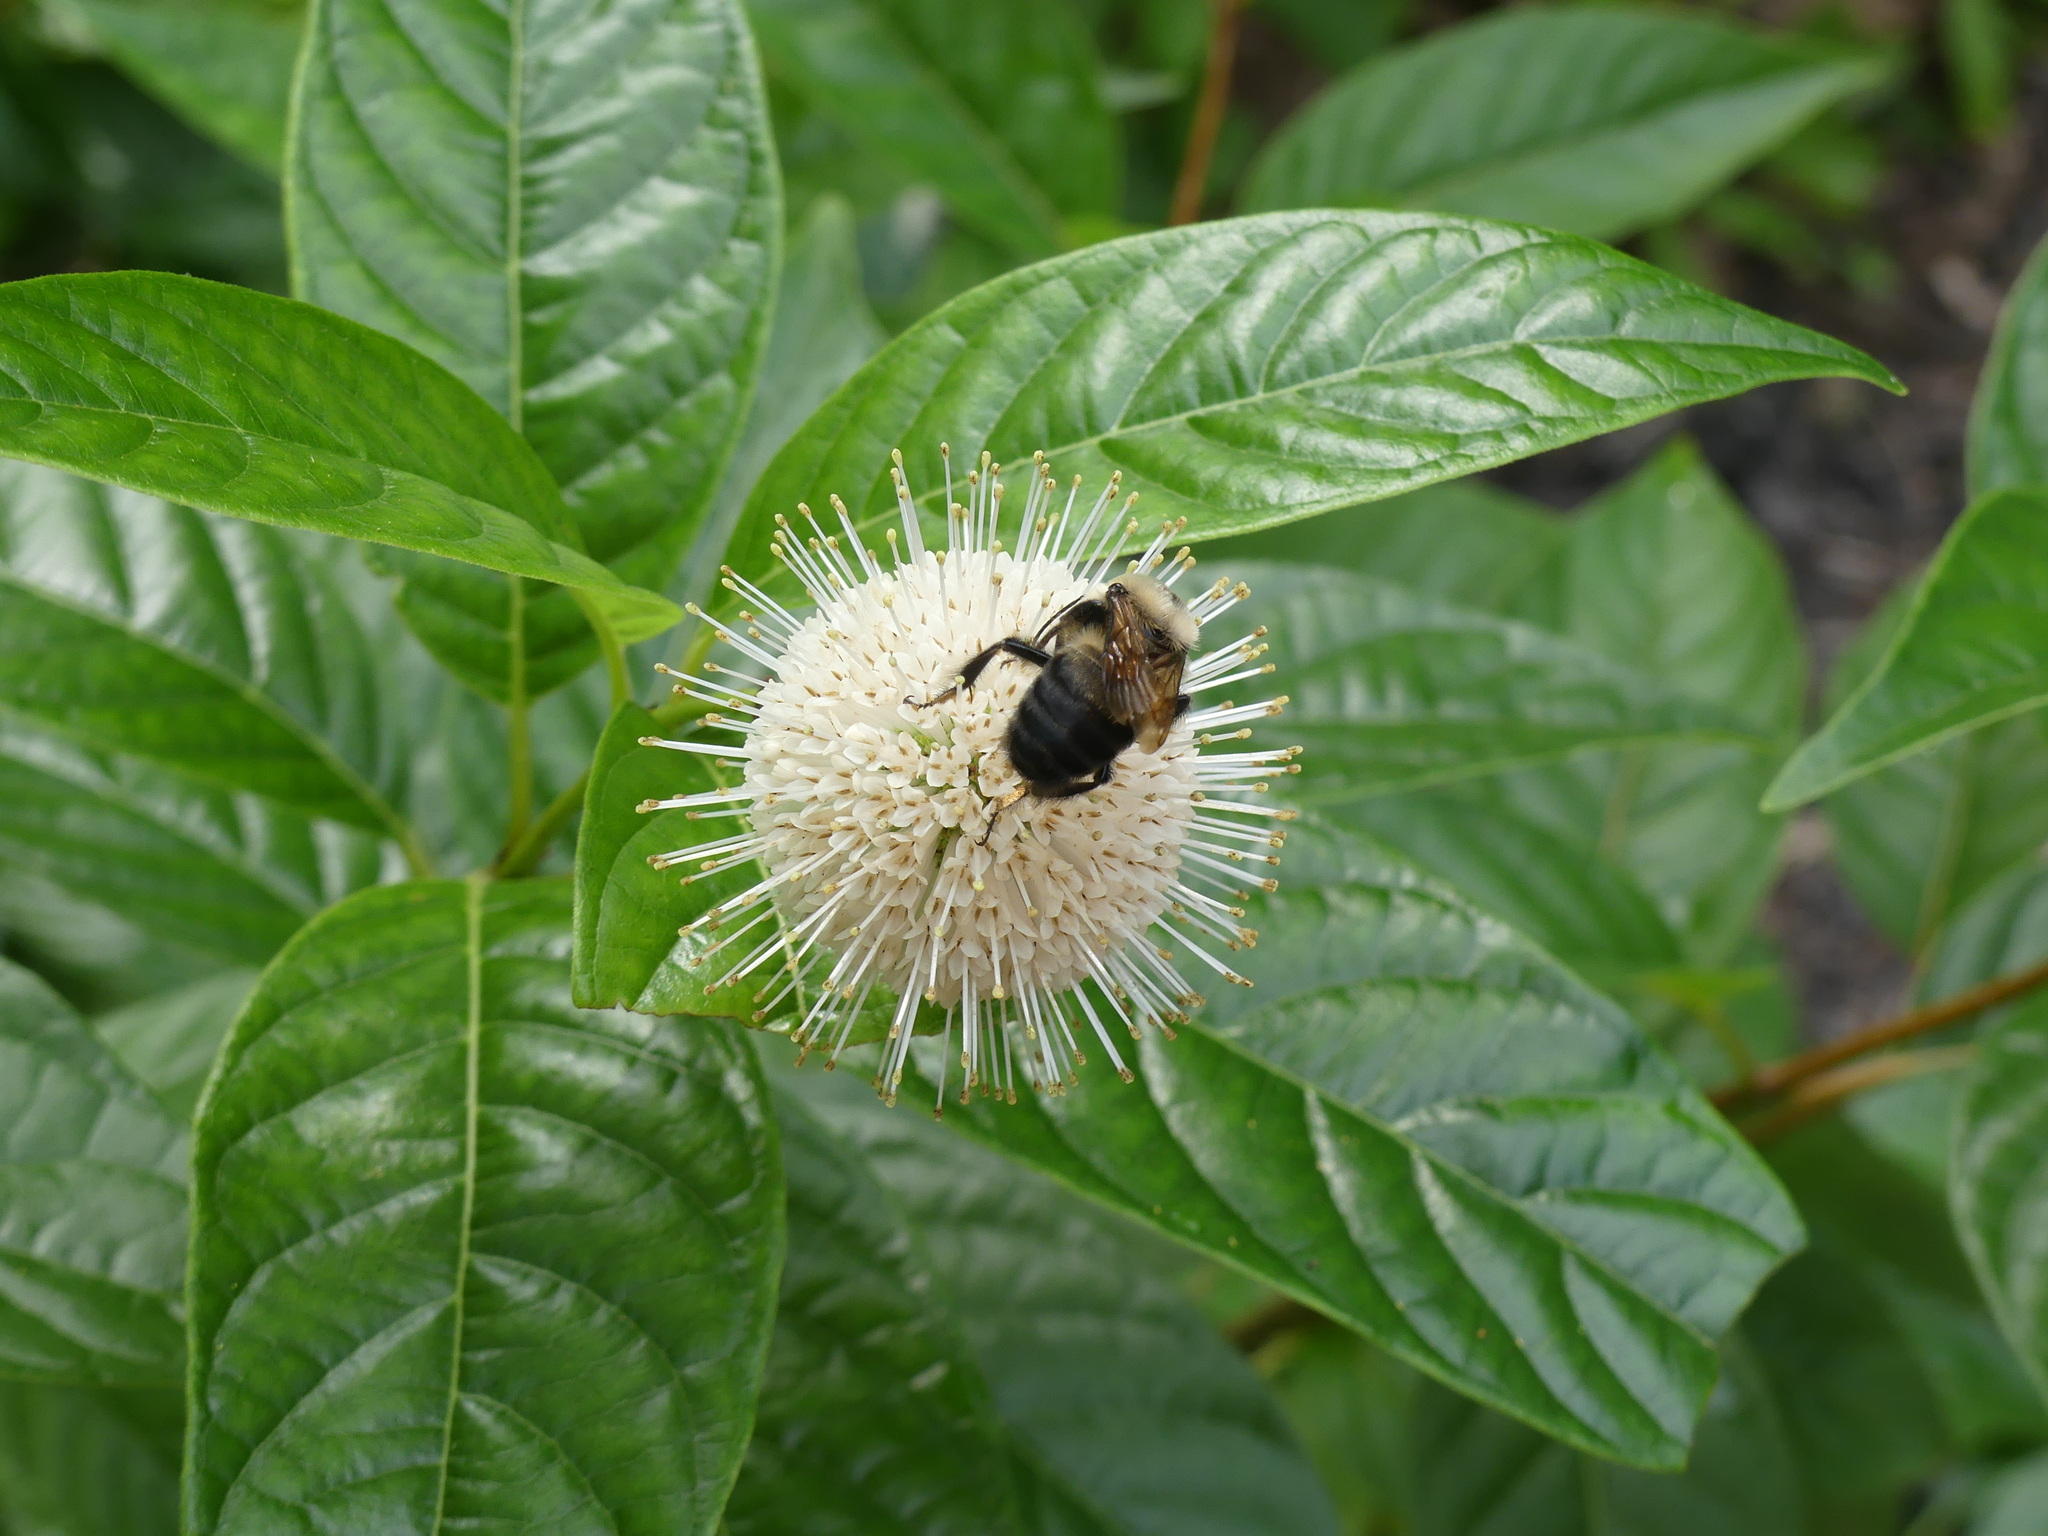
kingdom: Animalia
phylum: Arthropoda
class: Insecta
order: Hymenoptera
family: Apidae
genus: Bombus
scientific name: Bombus griseocollis
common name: Brown-belted bumble bee
